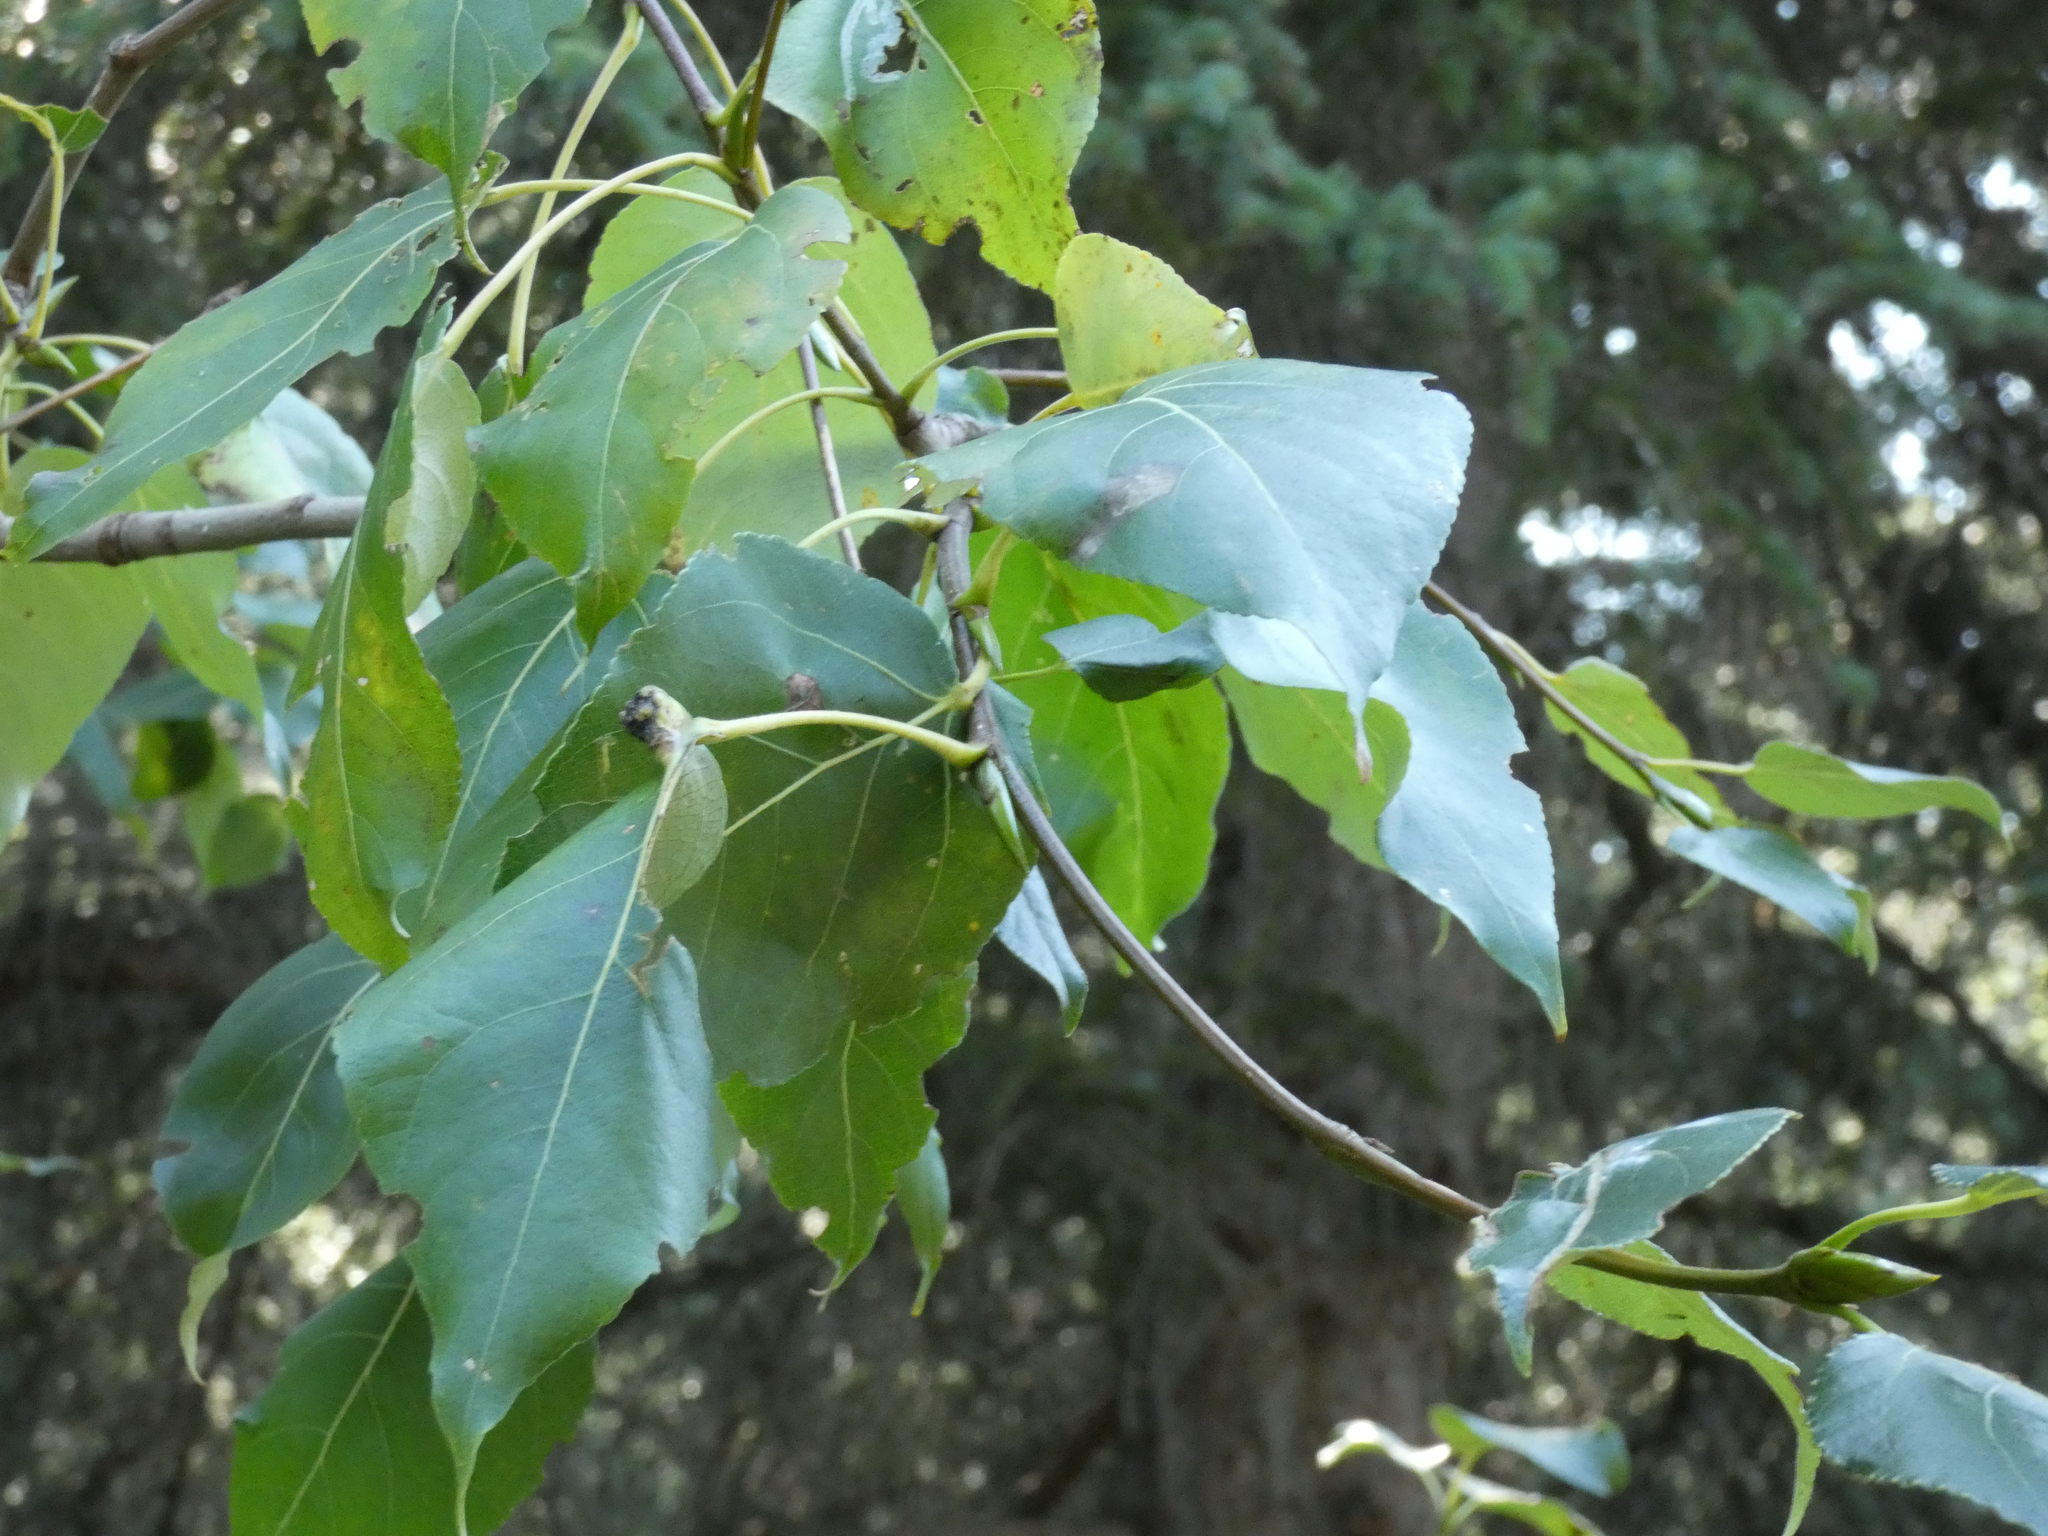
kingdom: Plantae
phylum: Tracheophyta
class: Magnoliopsida
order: Malpighiales
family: Salicaceae
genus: Populus
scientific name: Populus balsamifera
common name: Balsam poplar
